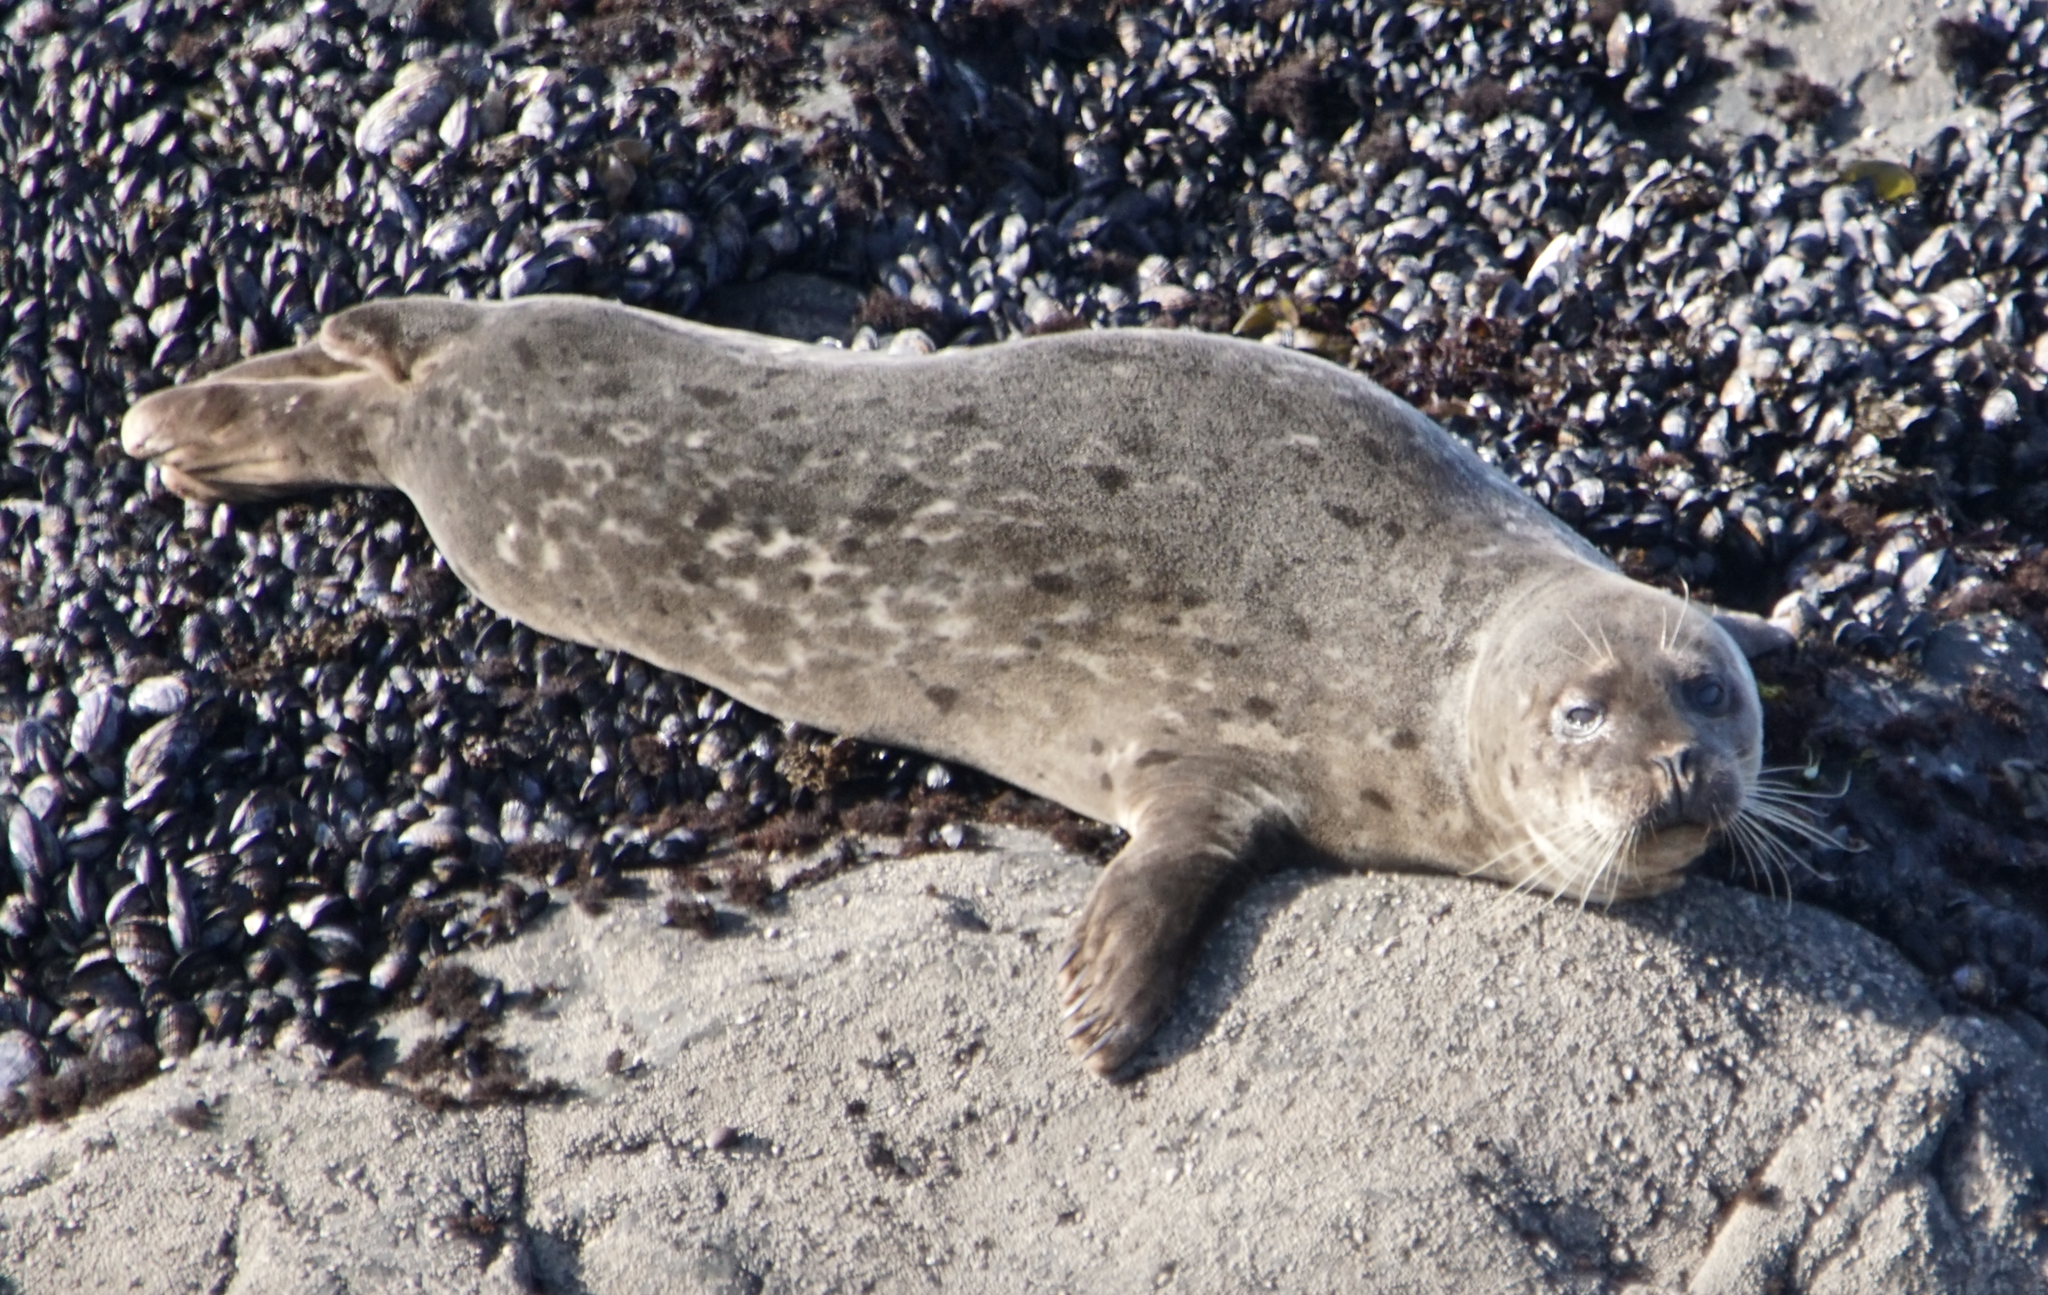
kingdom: Animalia
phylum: Chordata
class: Mammalia
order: Carnivora
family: Phocidae
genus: Phoca
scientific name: Phoca vitulina
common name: Harbor seal
